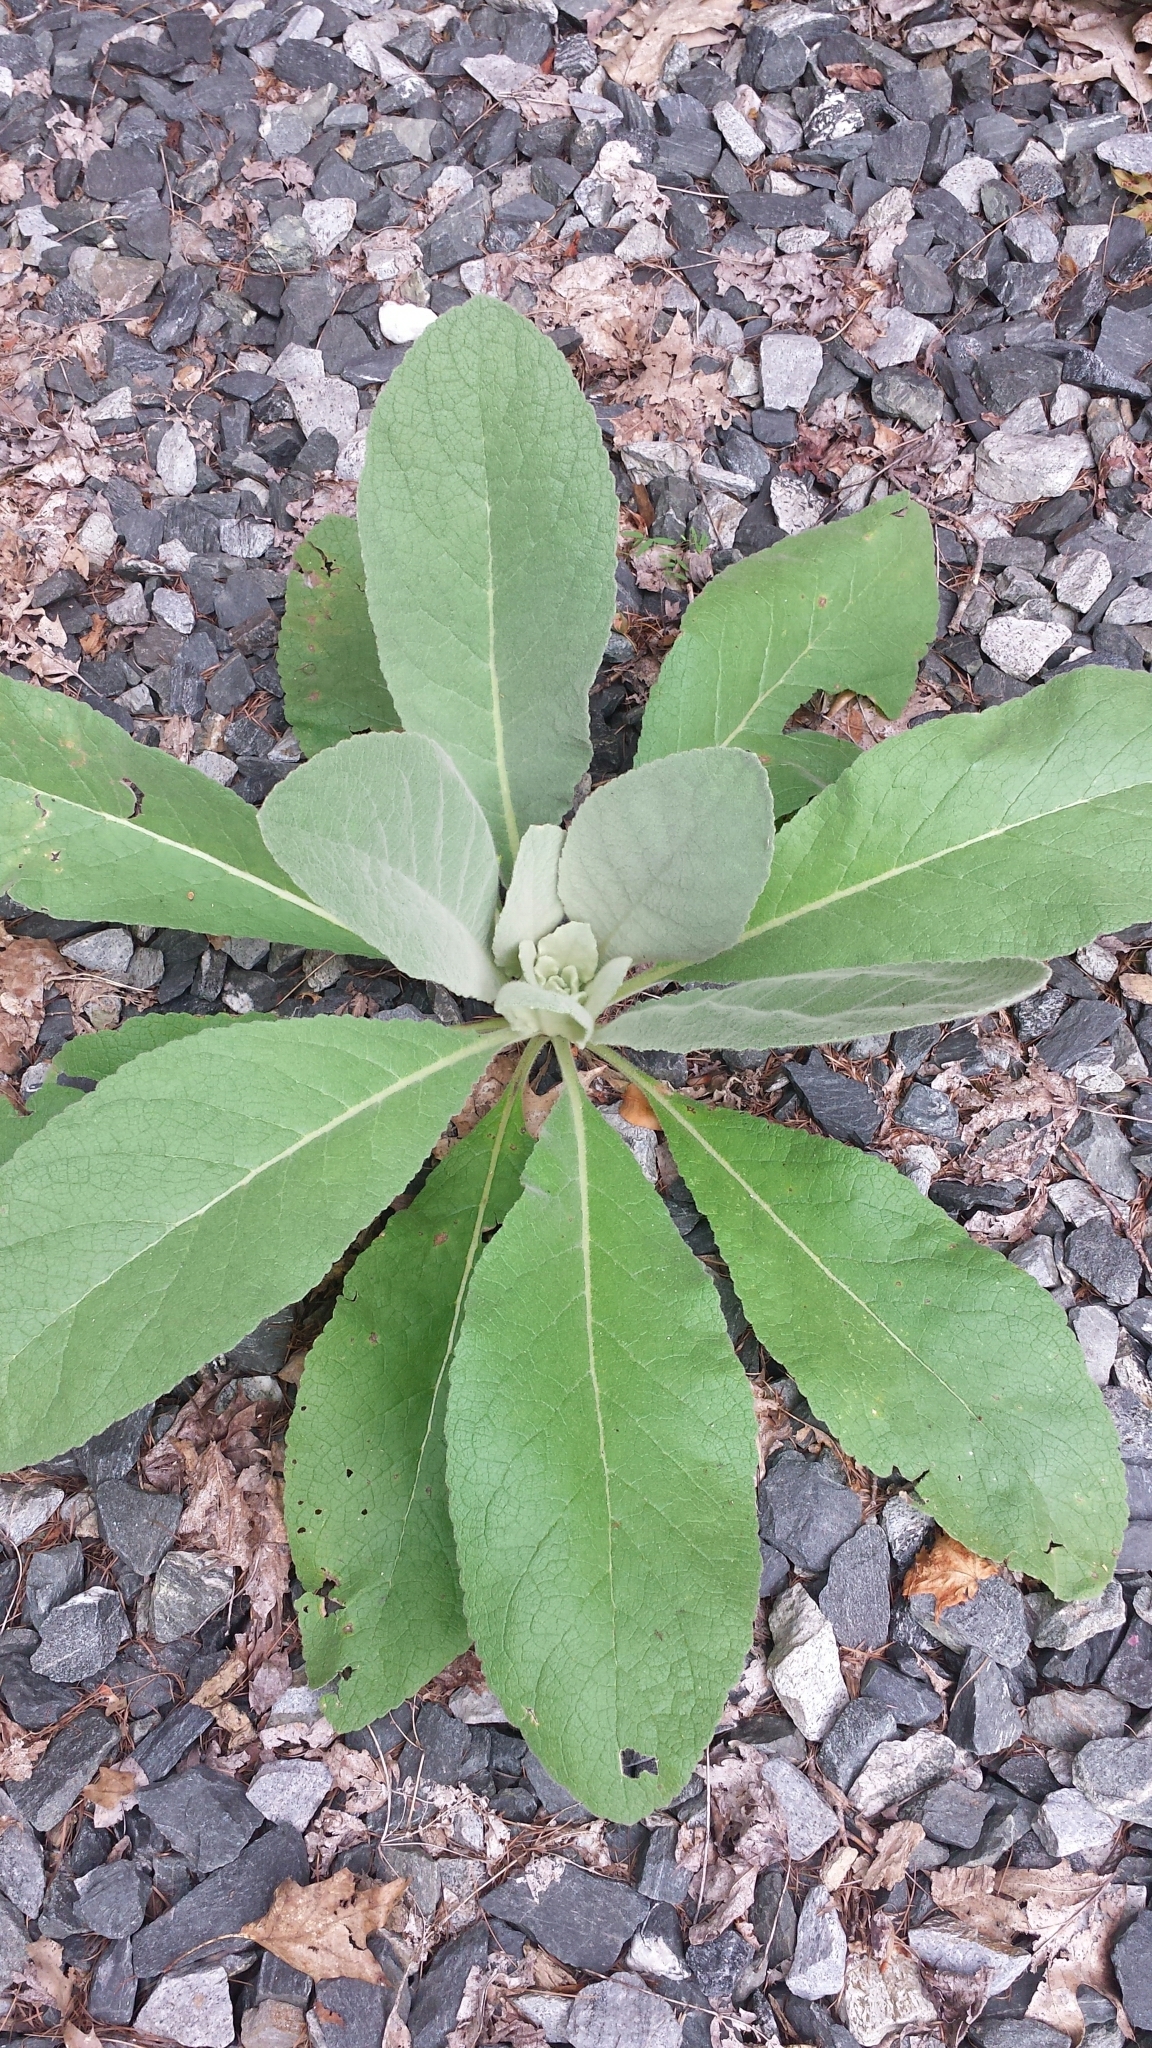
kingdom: Plantae
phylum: Tracheophyta
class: Magnoliopsida
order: Lamiales
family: Scrophulariaceae
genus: Verbascum
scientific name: Verbascum thapsus
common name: Common mullein
